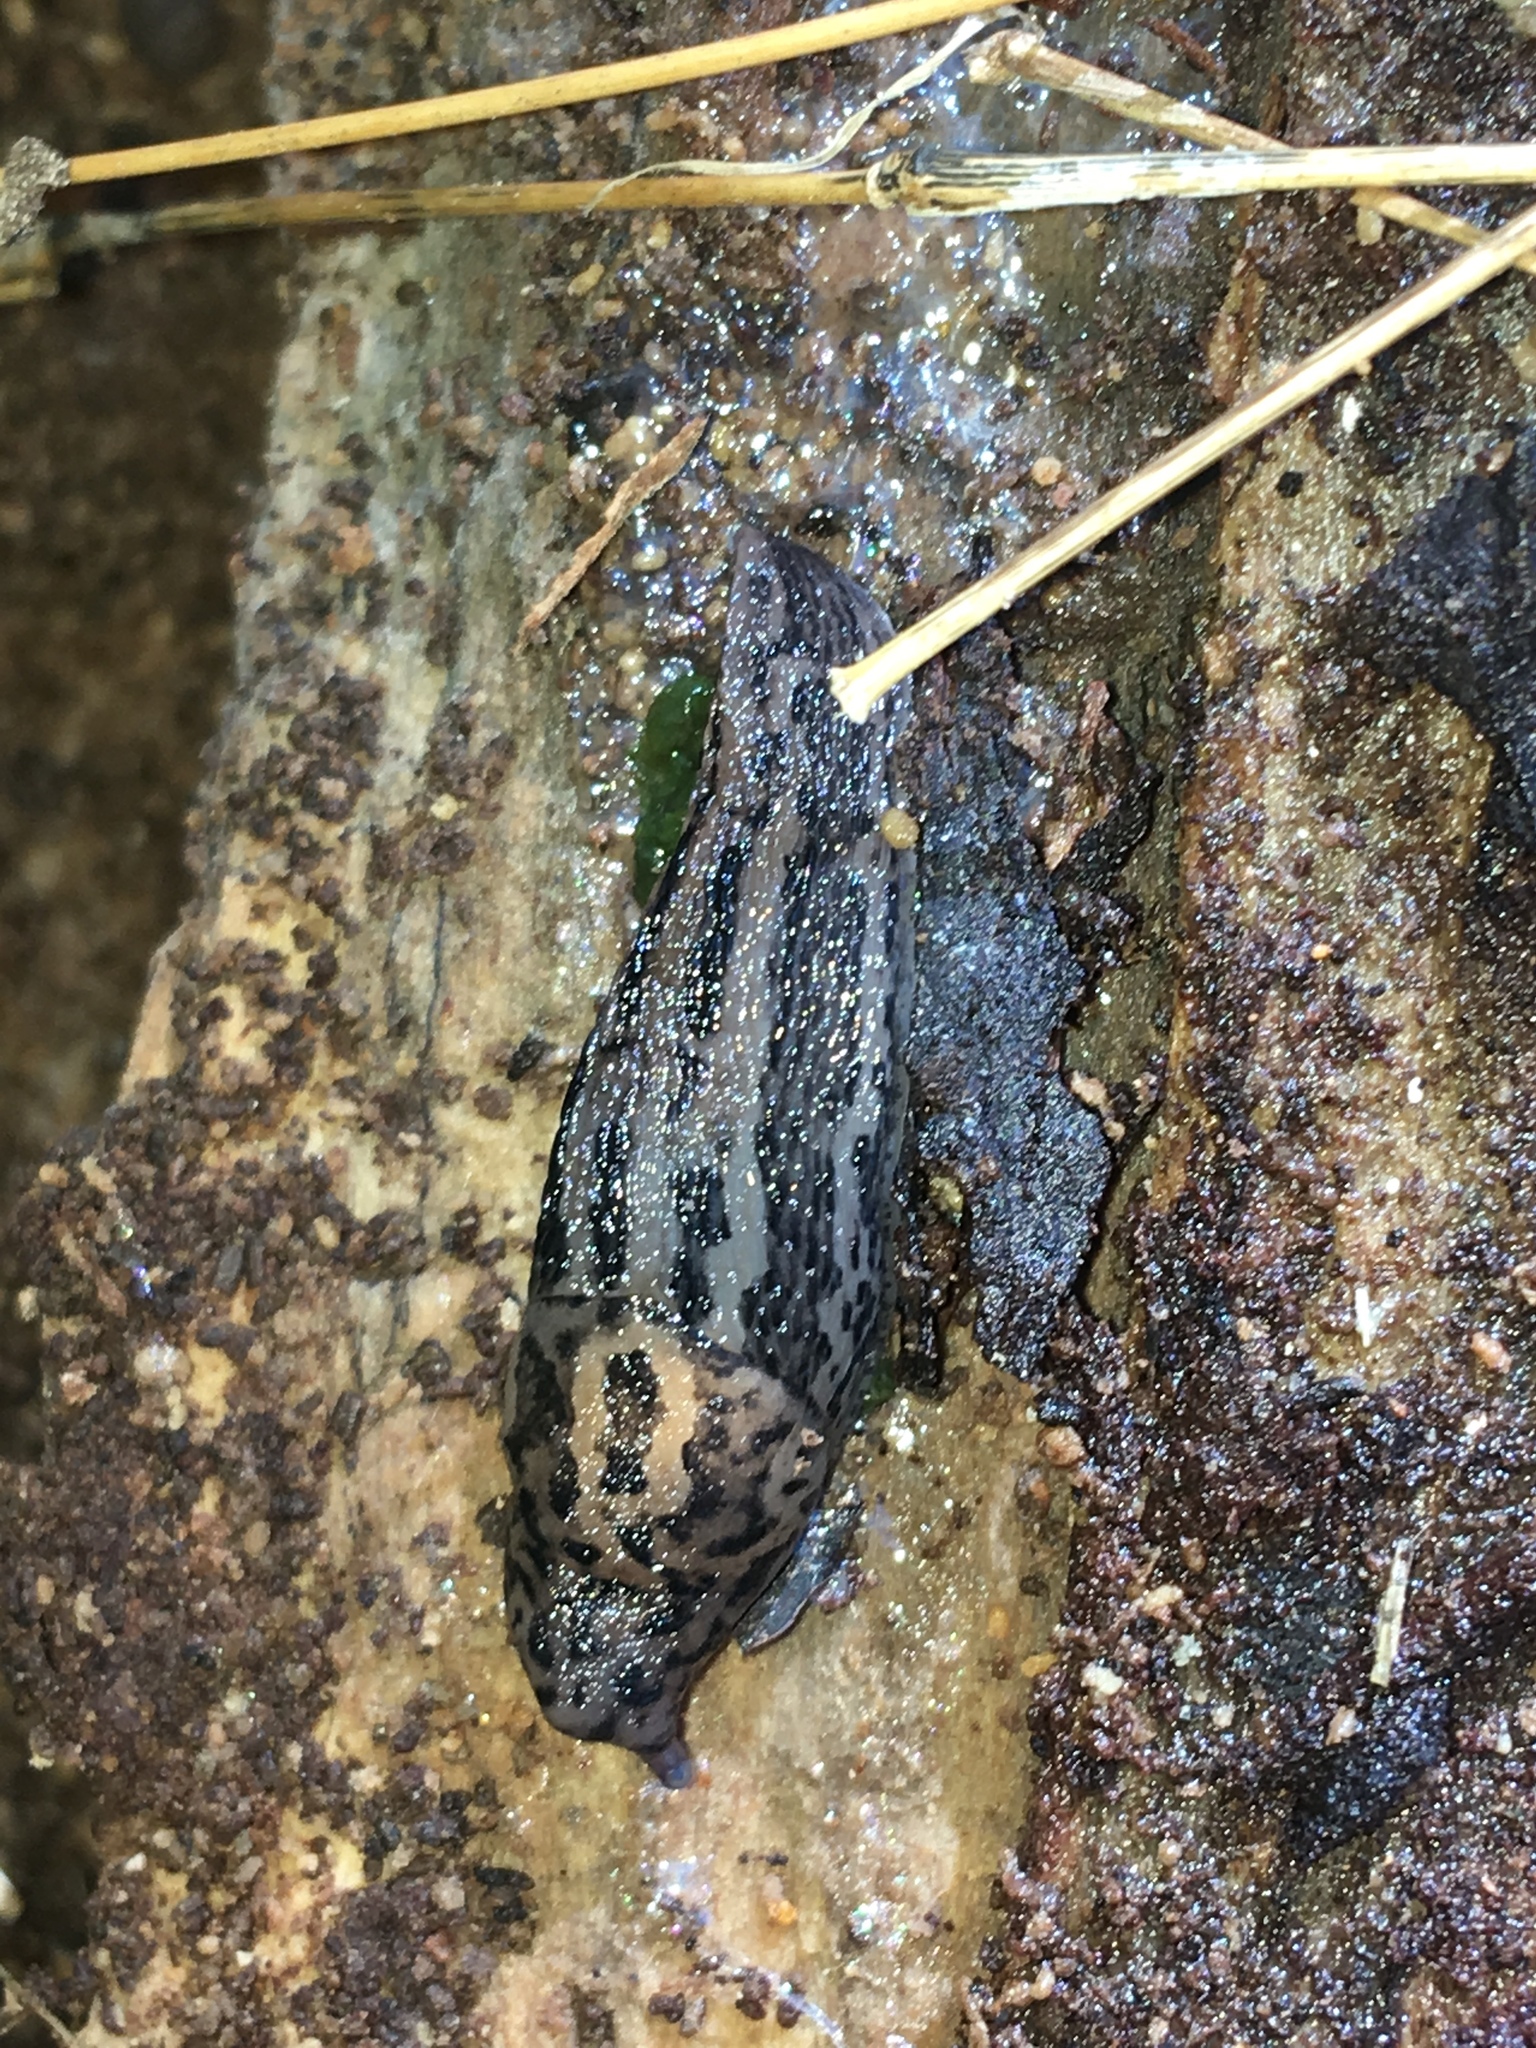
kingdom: Animalia
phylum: Mollusca
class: Gastropoda
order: Stylommatophora
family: Limacidae
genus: Limax
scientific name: Limax maximus
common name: Great grey slug
